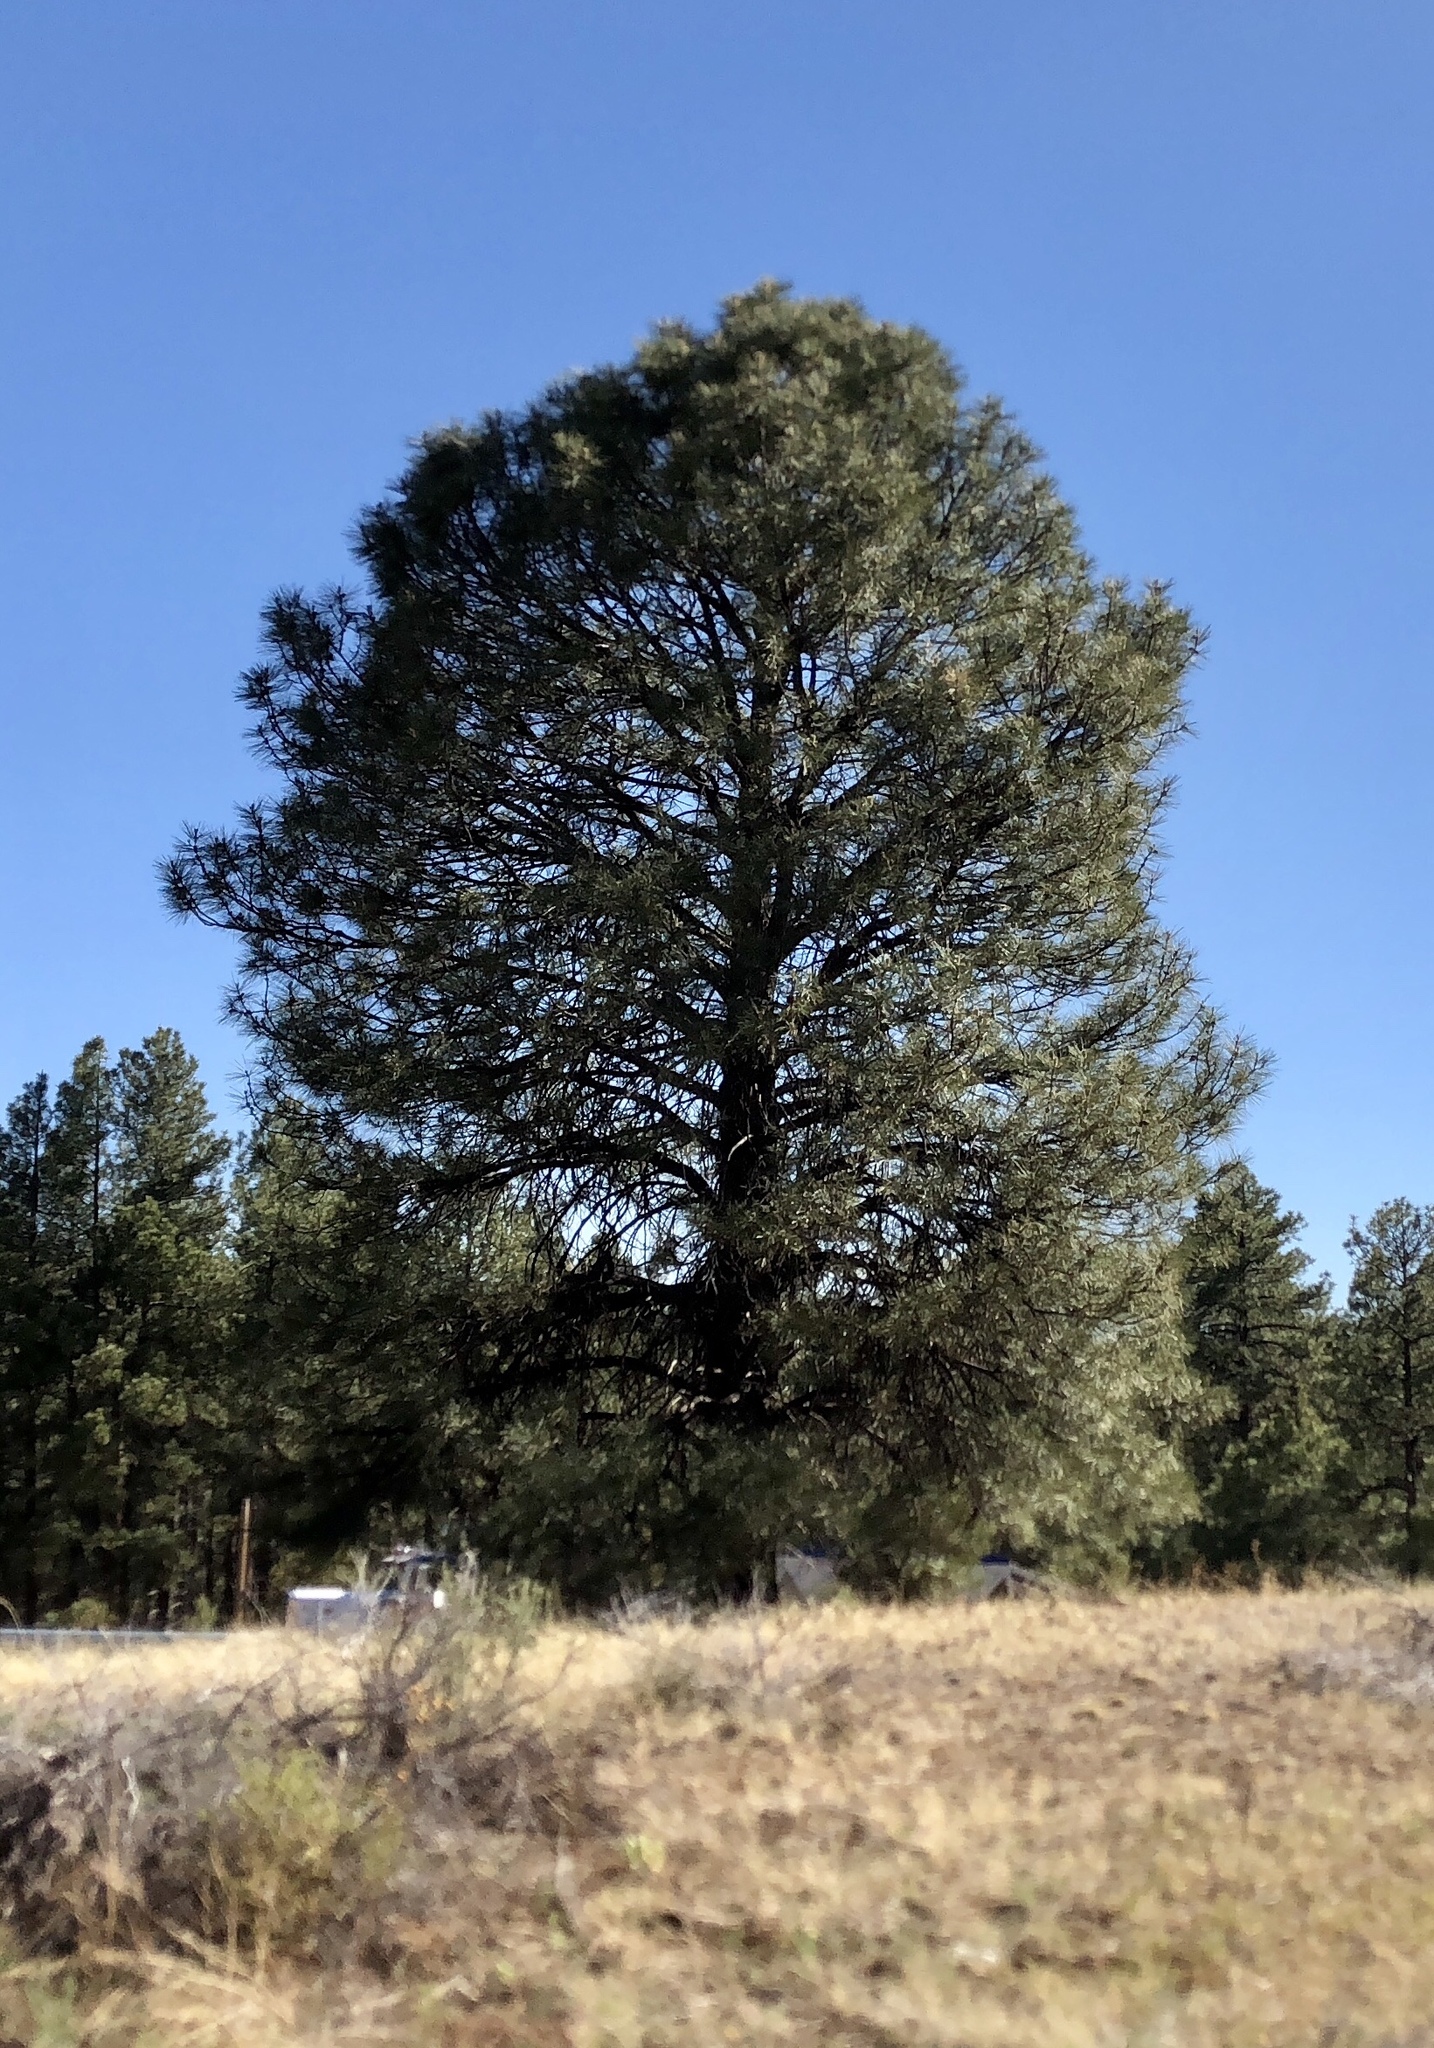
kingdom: Plantae
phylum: Tracheophyta
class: Pinopsida
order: Pinales
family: Pinaceae
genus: Pinus
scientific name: Pinus ponderosa
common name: Western yellow-pine
